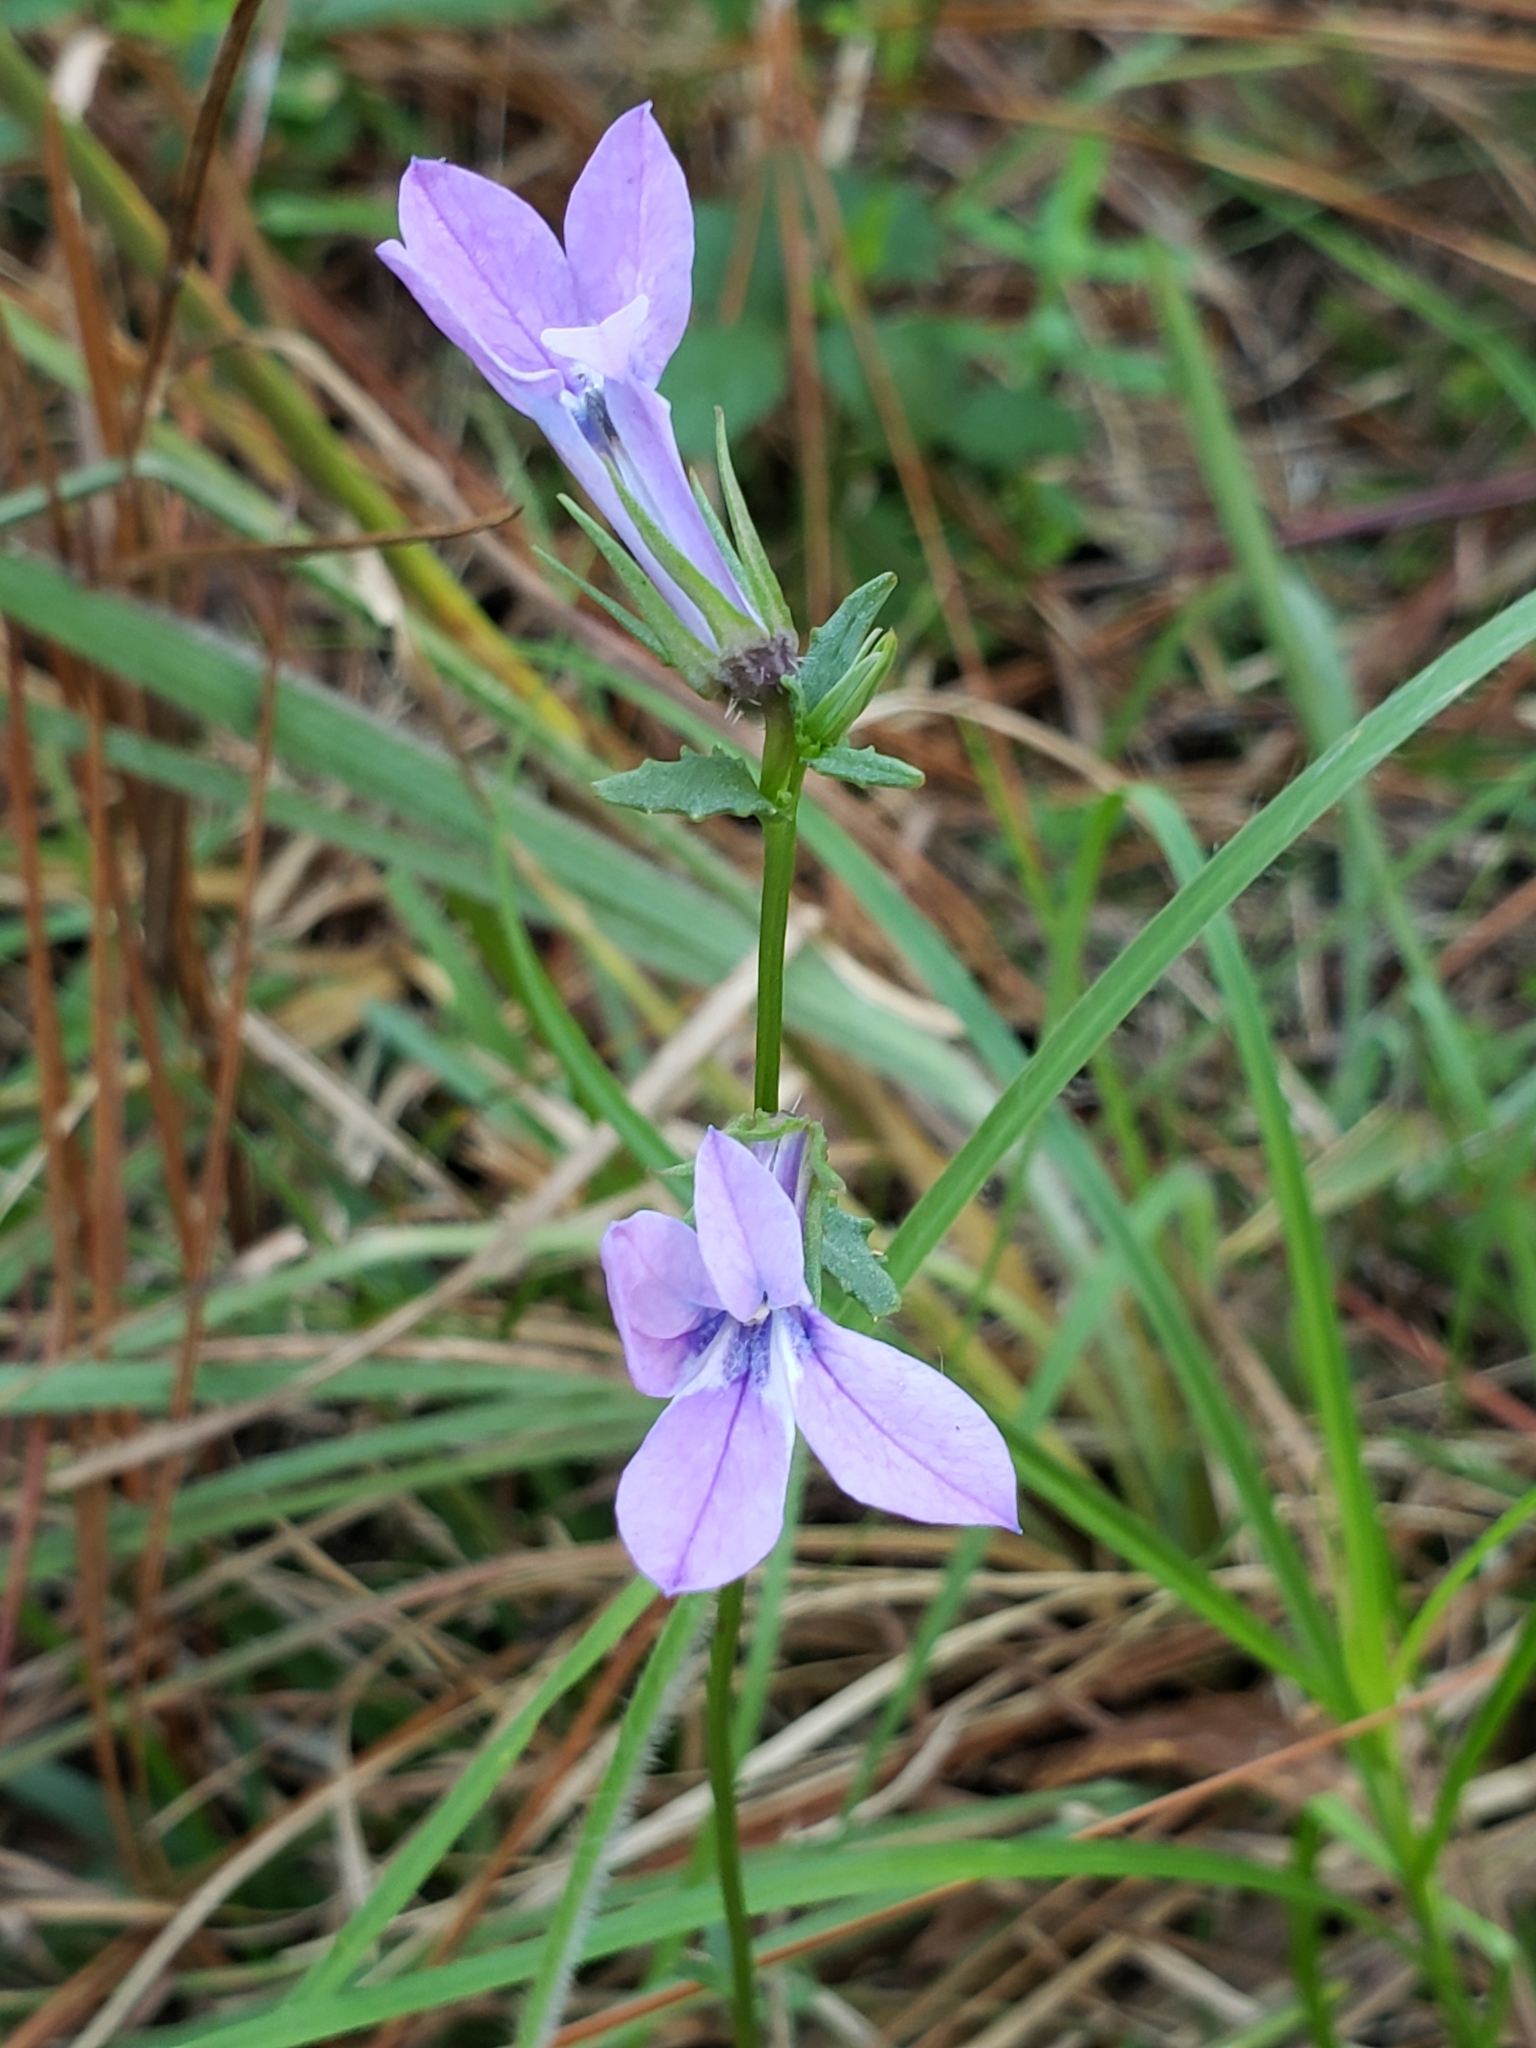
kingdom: Plantae
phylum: Tracheophyta
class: Magnoliopsida
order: Asterales
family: Campanulaceae
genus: Lobelia
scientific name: Lobelia glandulosa
